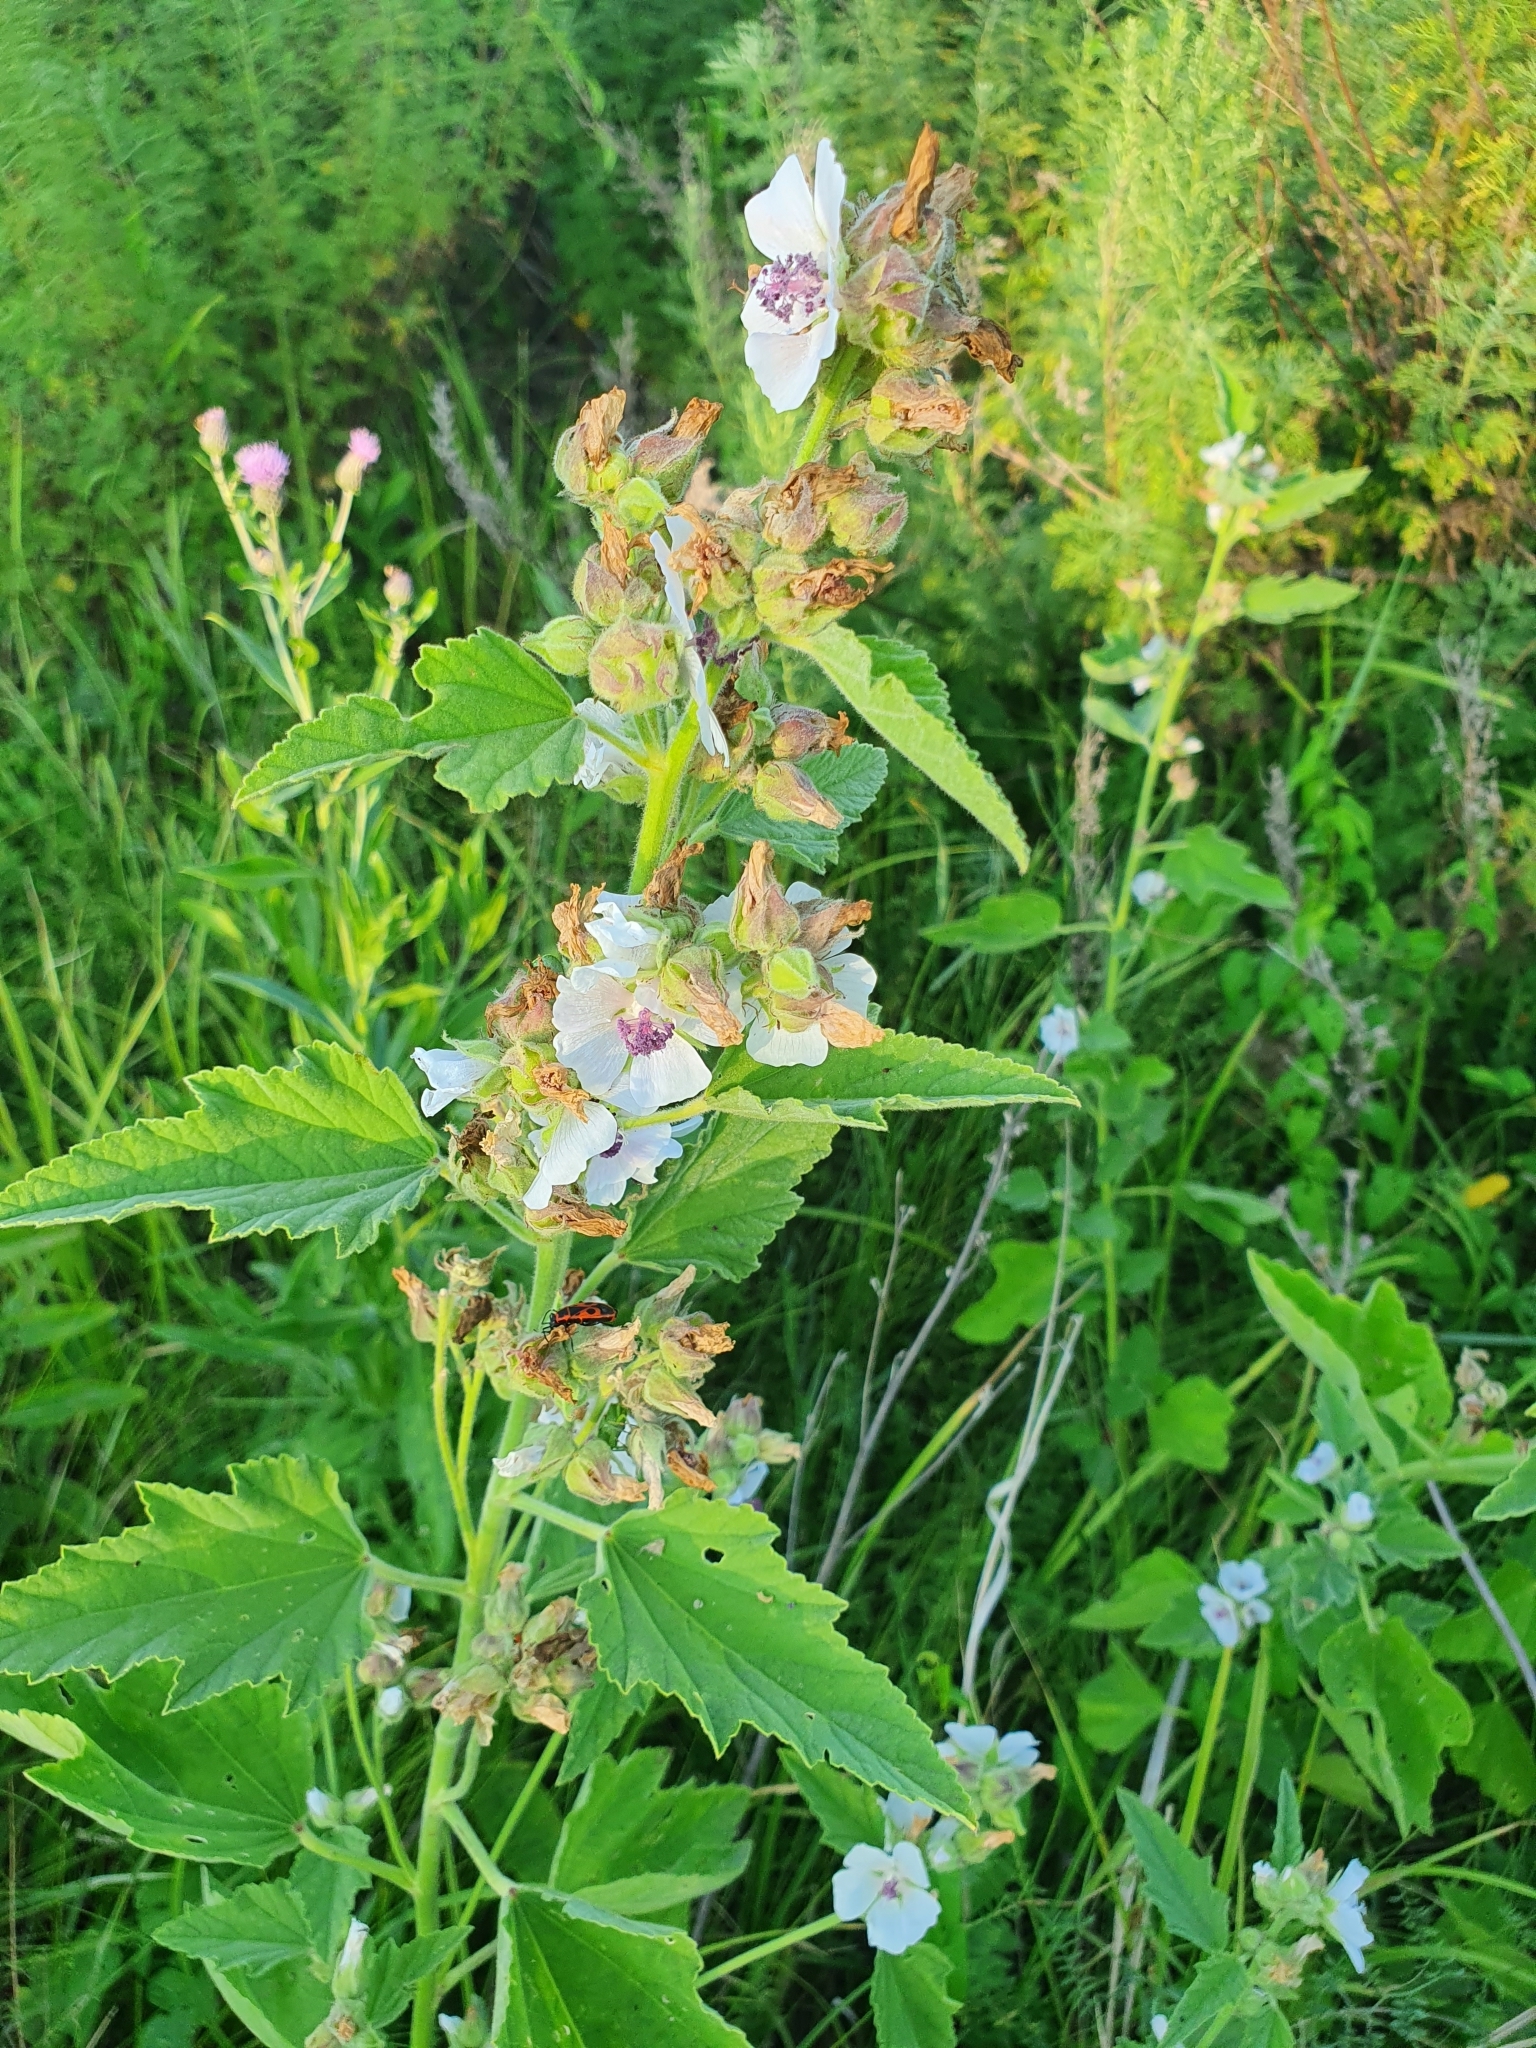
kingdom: Plantae
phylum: Tracheophyta
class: Magnoliopsida
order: Malvales
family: Malvaceae
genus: Althaea
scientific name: Althaea officinalis
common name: Marsh-mallow
